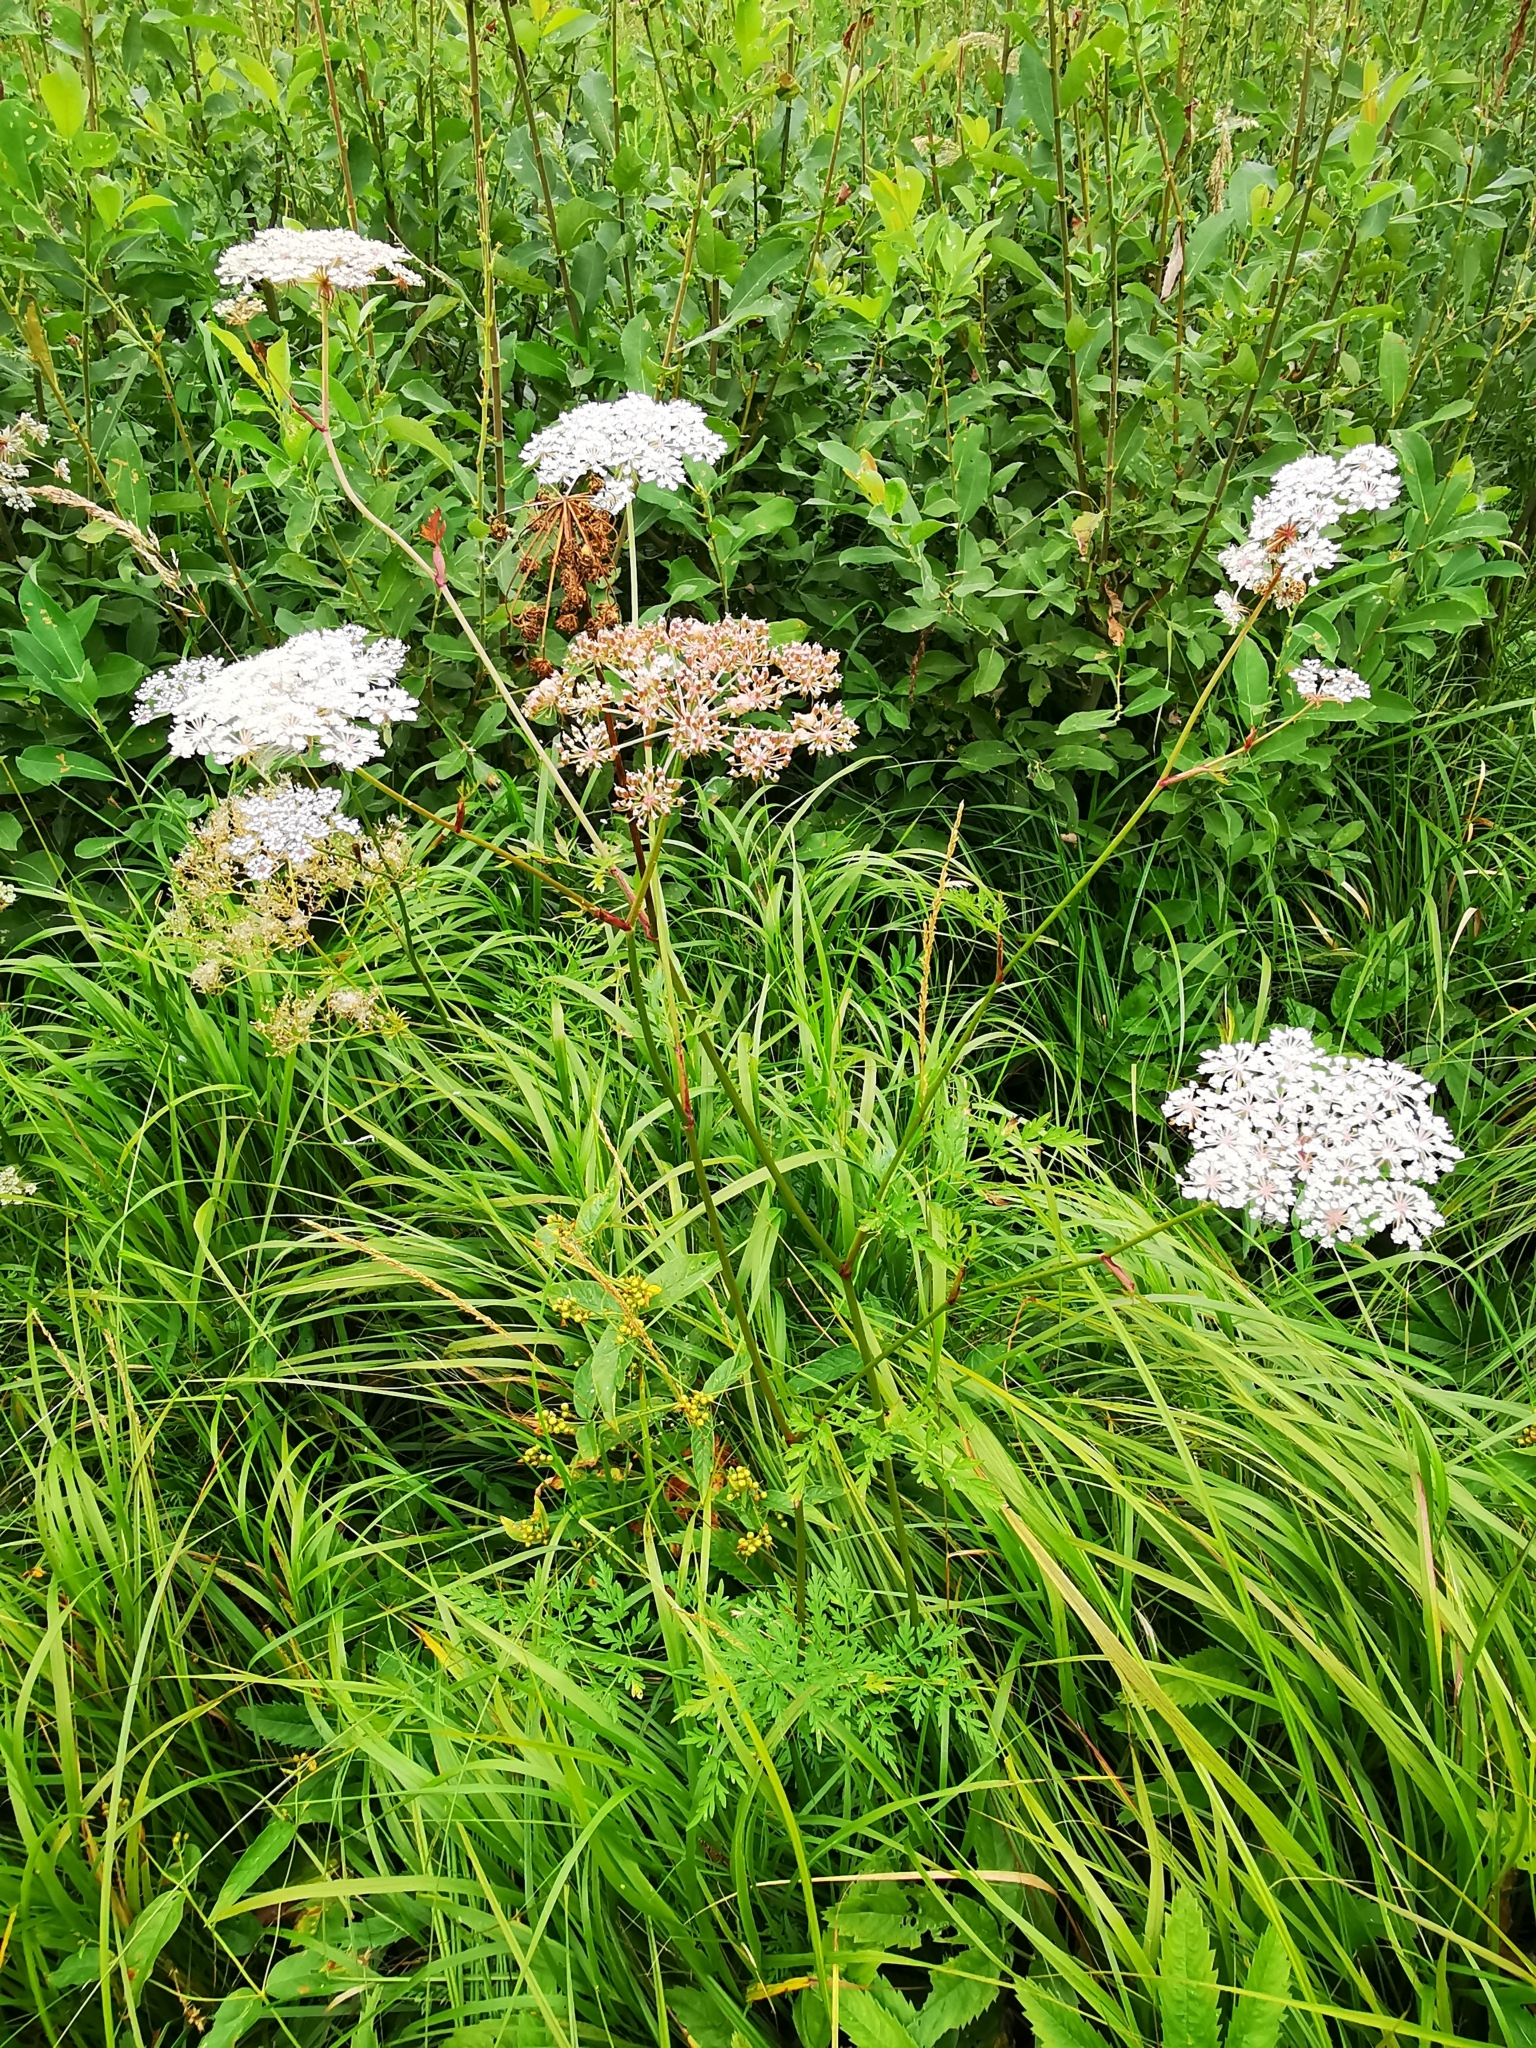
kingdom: Plantae
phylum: Tracheophyta
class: Magnoliopsida
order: Apiales
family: Apiaceae
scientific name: Apiaceae
